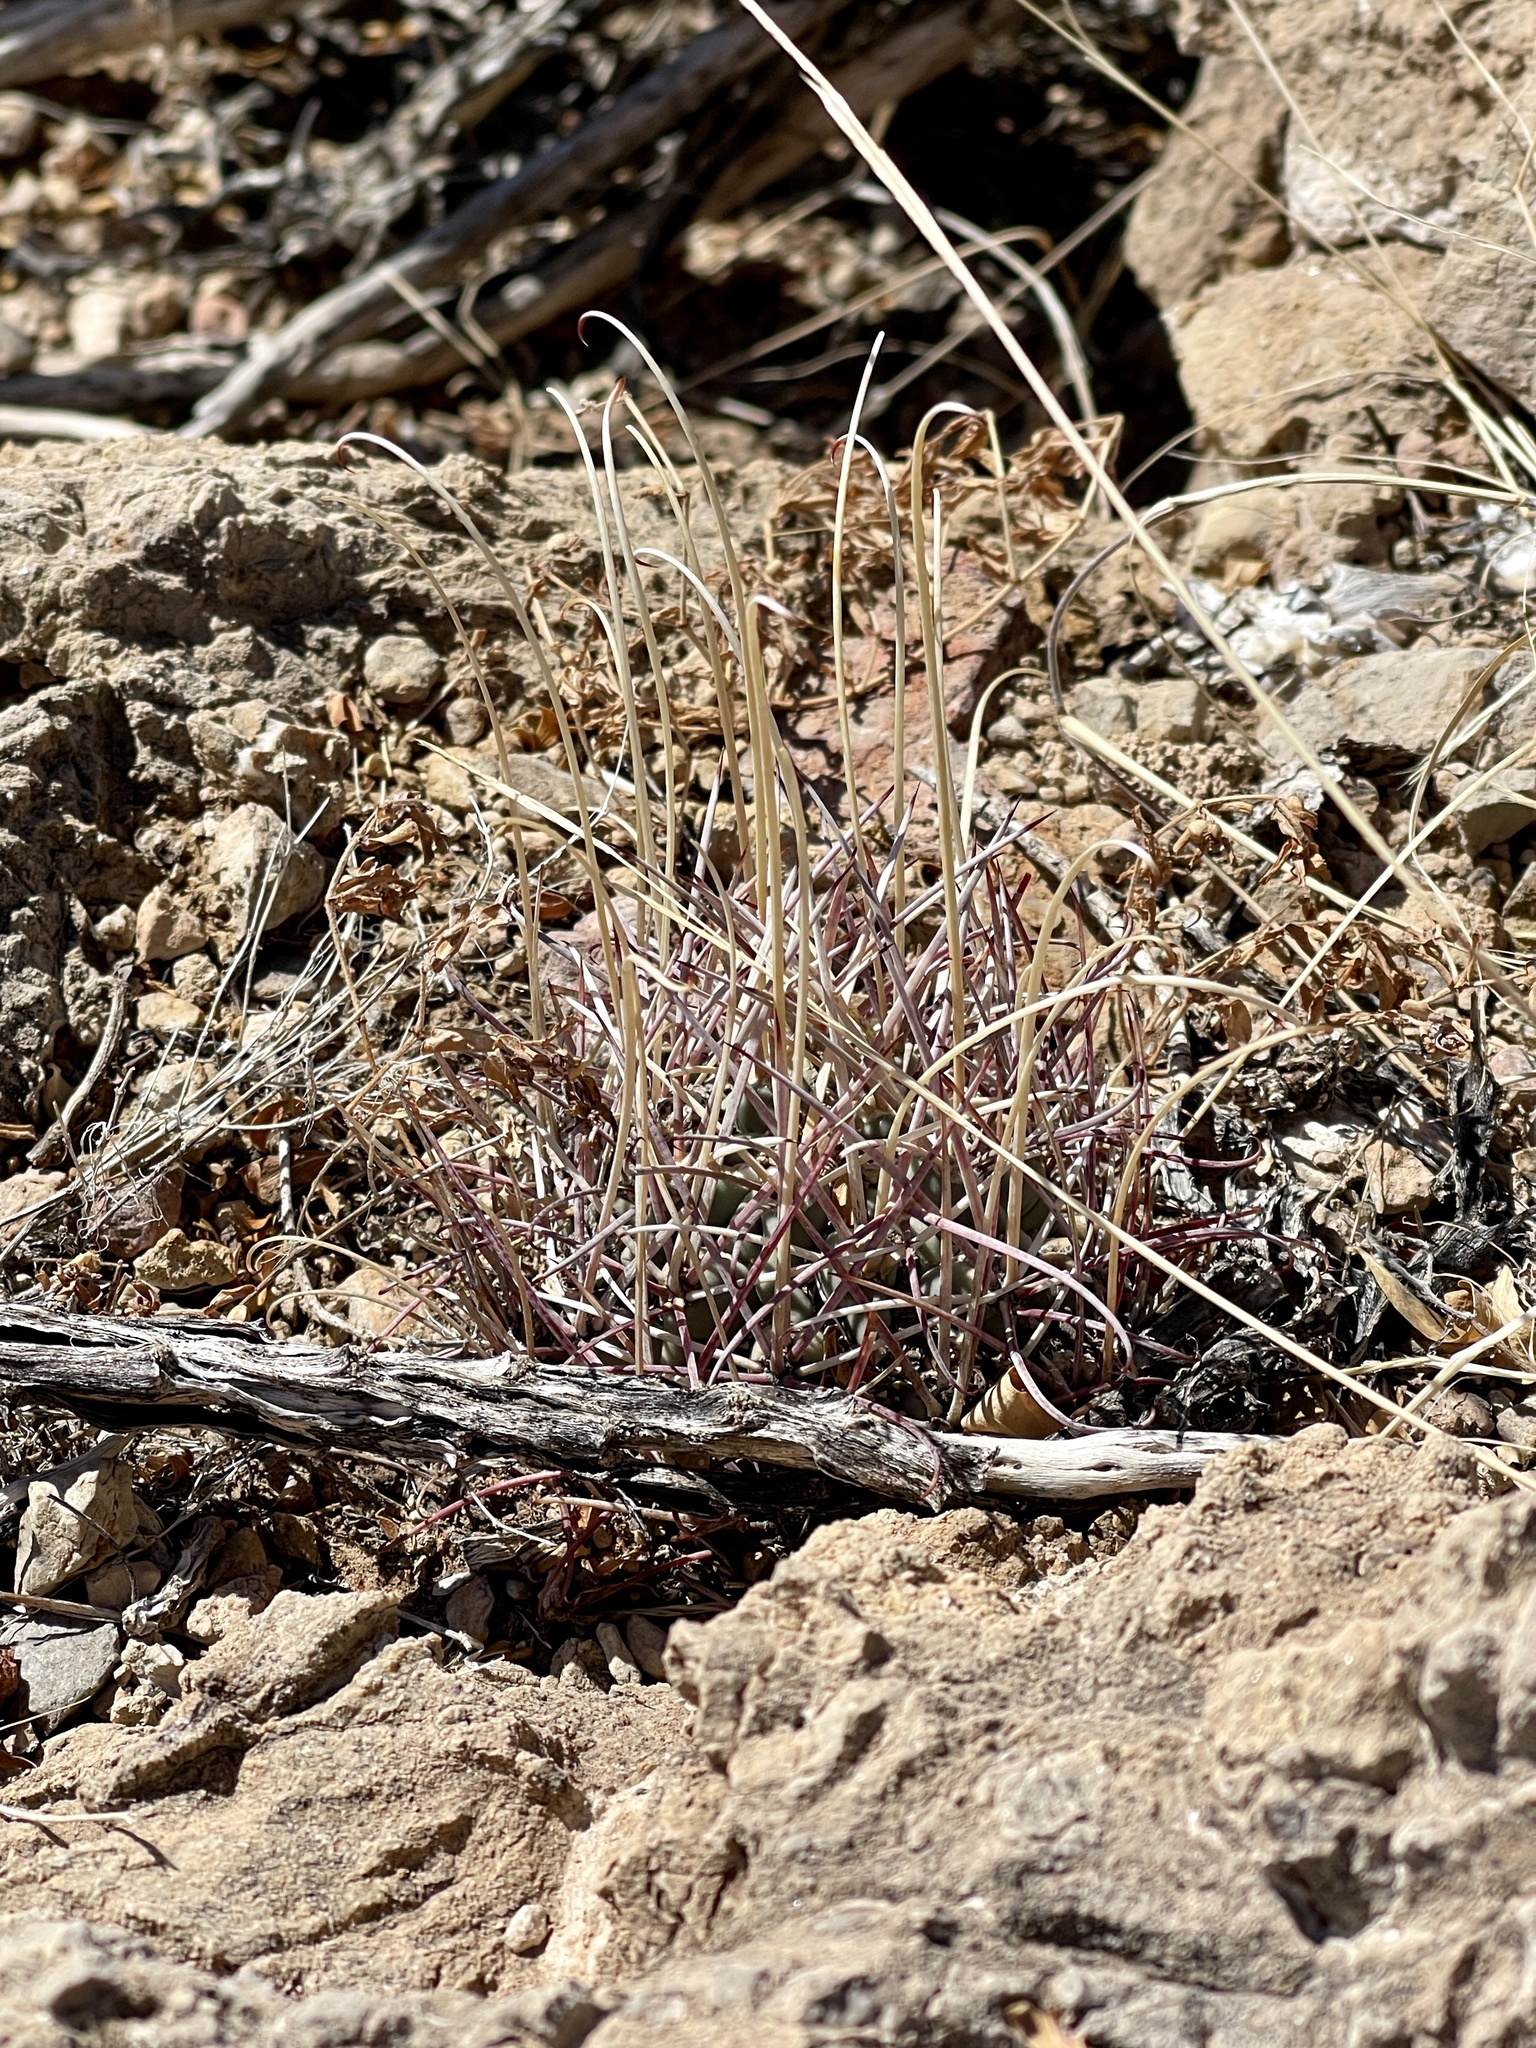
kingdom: Plantae
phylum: Tracheophyta
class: Magnoliopsida
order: Caryophyllales
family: Cactaceae
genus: Ferocactus
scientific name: Ferocactus uncinatus
